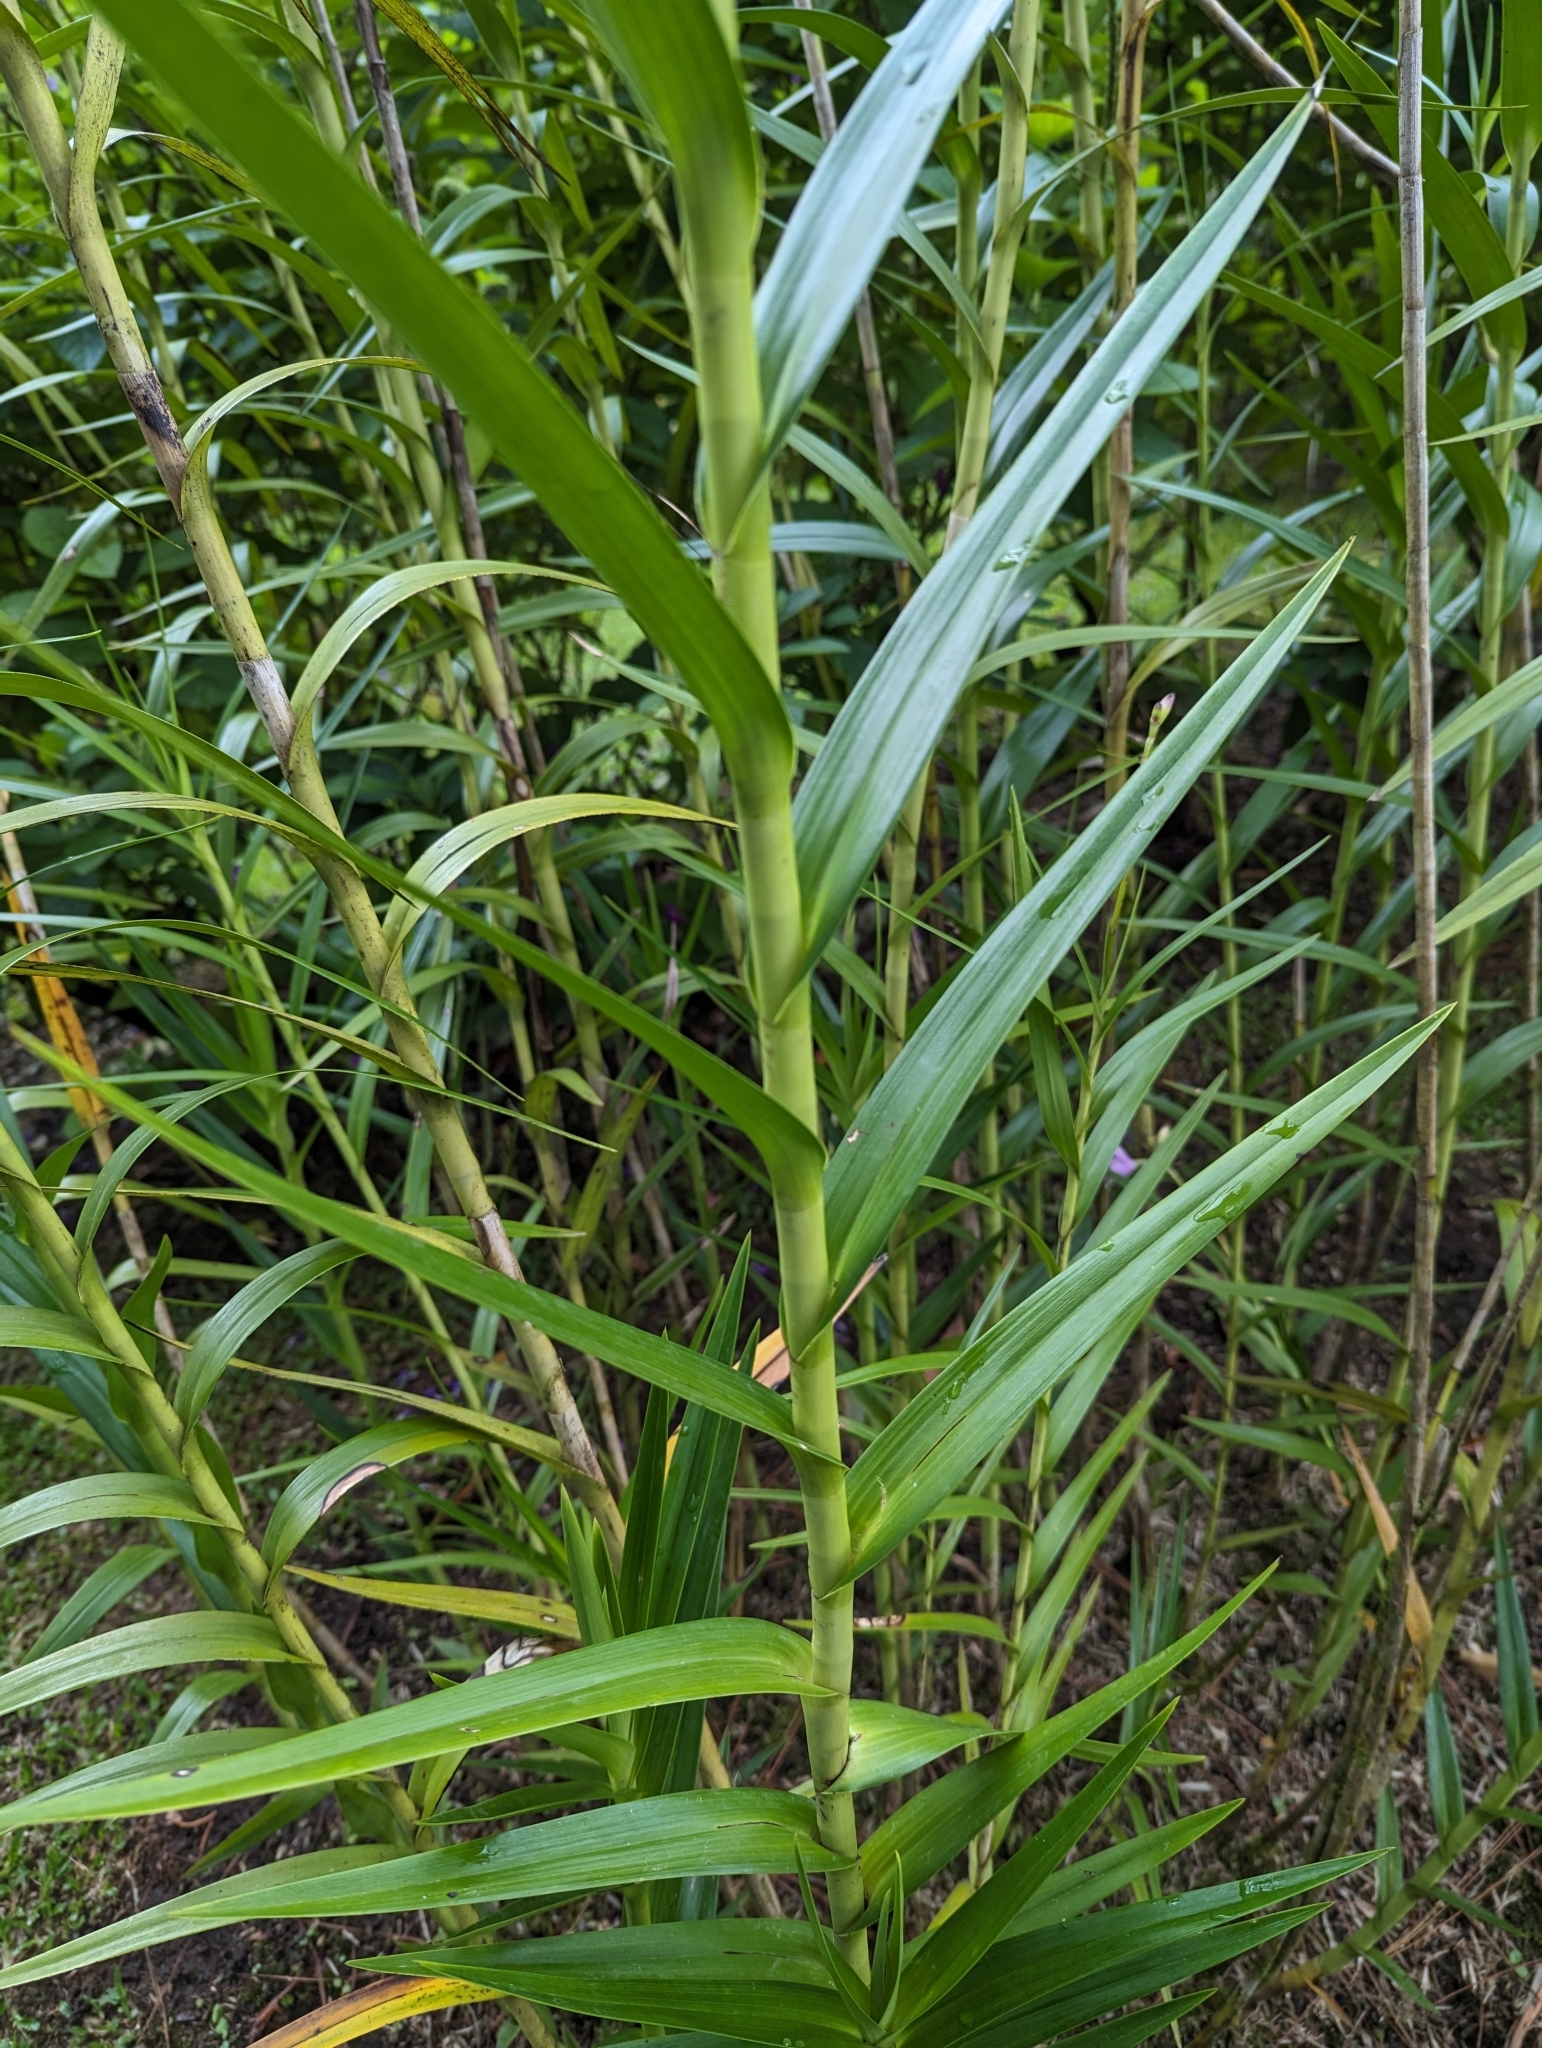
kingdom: Plantae
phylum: Tracheophyta
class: Liliopsida
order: Asparagales
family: Orchidaceae
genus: Arundina
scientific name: Arundina graminifolia
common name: Bamboo orchid
